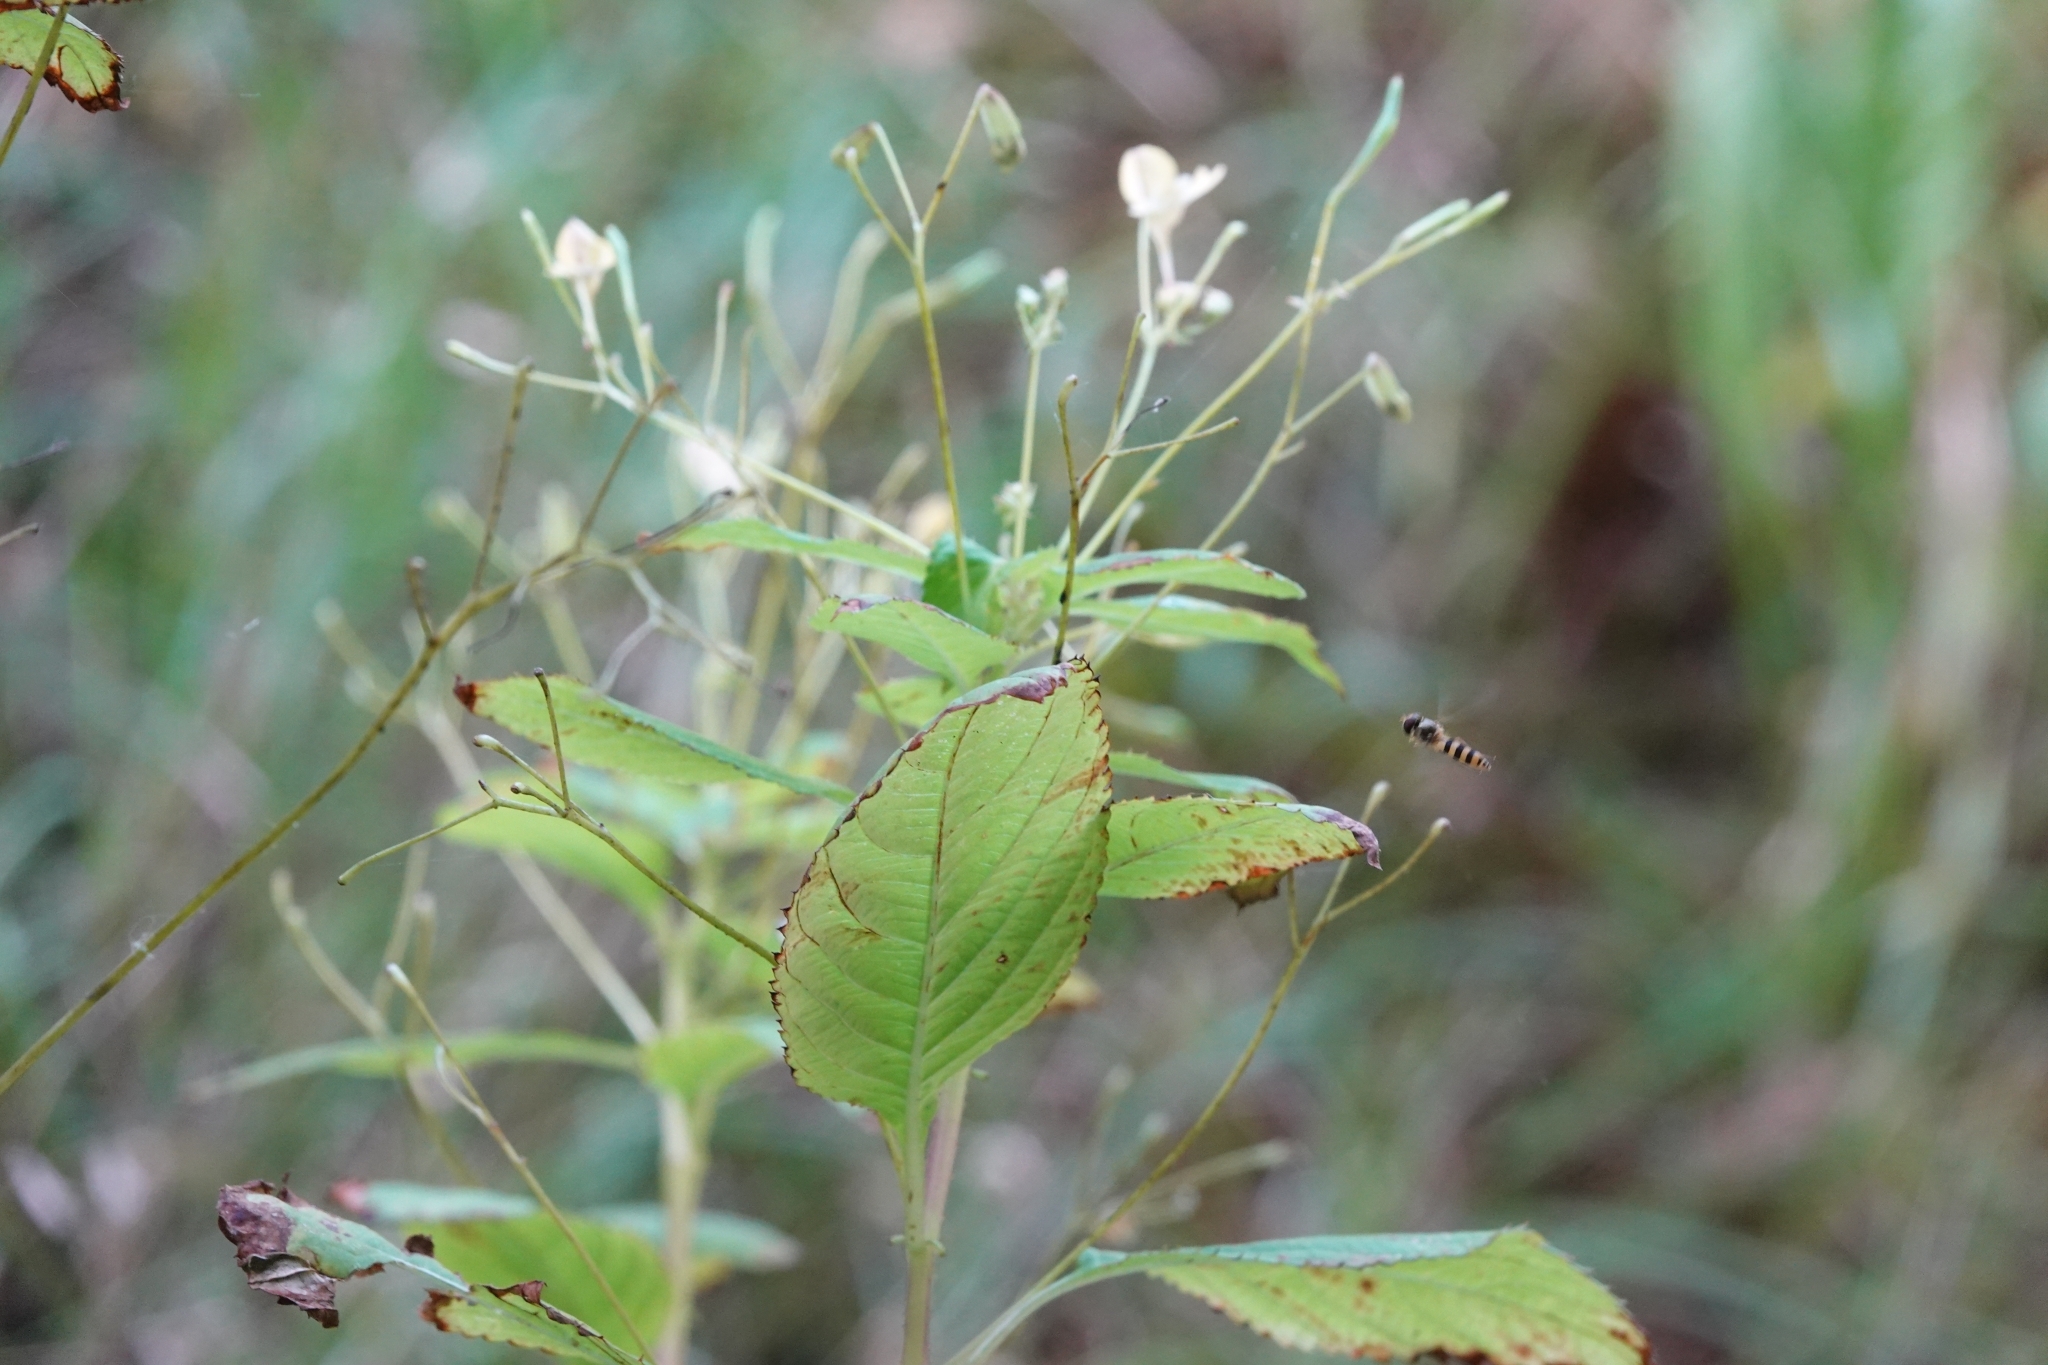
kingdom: Plantae
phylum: Tracheophyta
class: Magnoliopsida
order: Ericales
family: Balsaminaceae
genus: Impatiens
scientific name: Impatiens parviflora
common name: Small balsam
